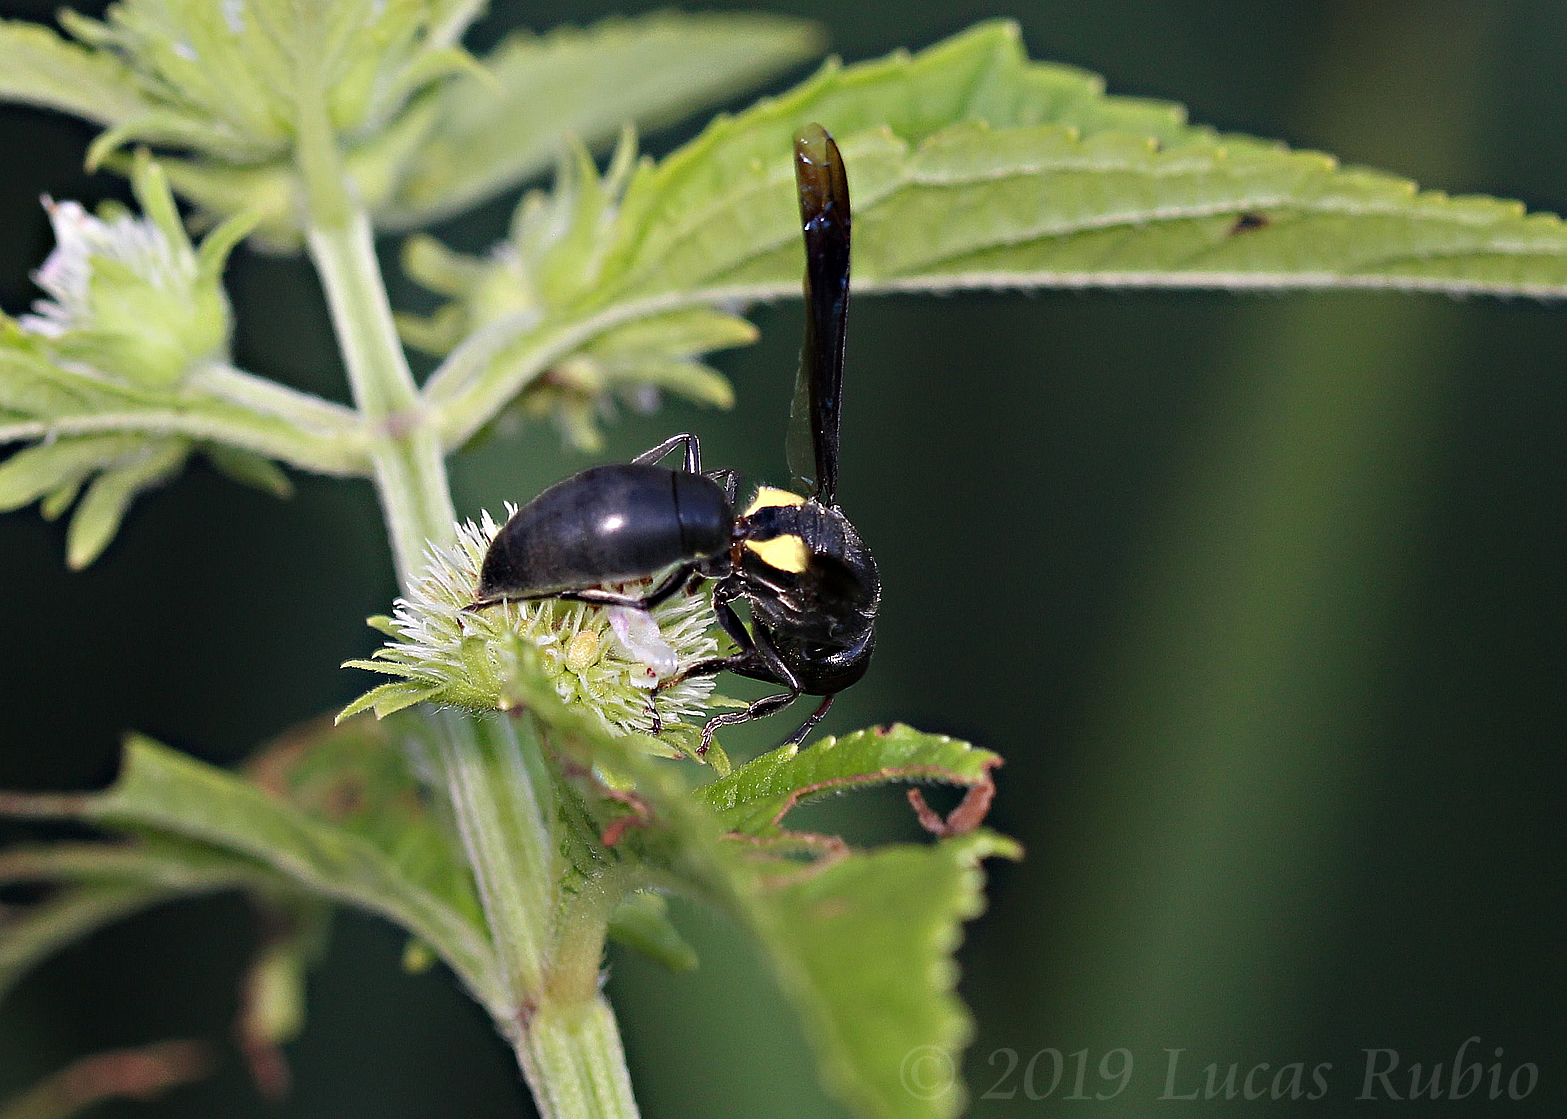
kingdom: Animalia
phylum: Arthropoda
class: Insecta
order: Hymenoptera
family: Eumenidae
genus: Monobia
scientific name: Monobia angulosa
